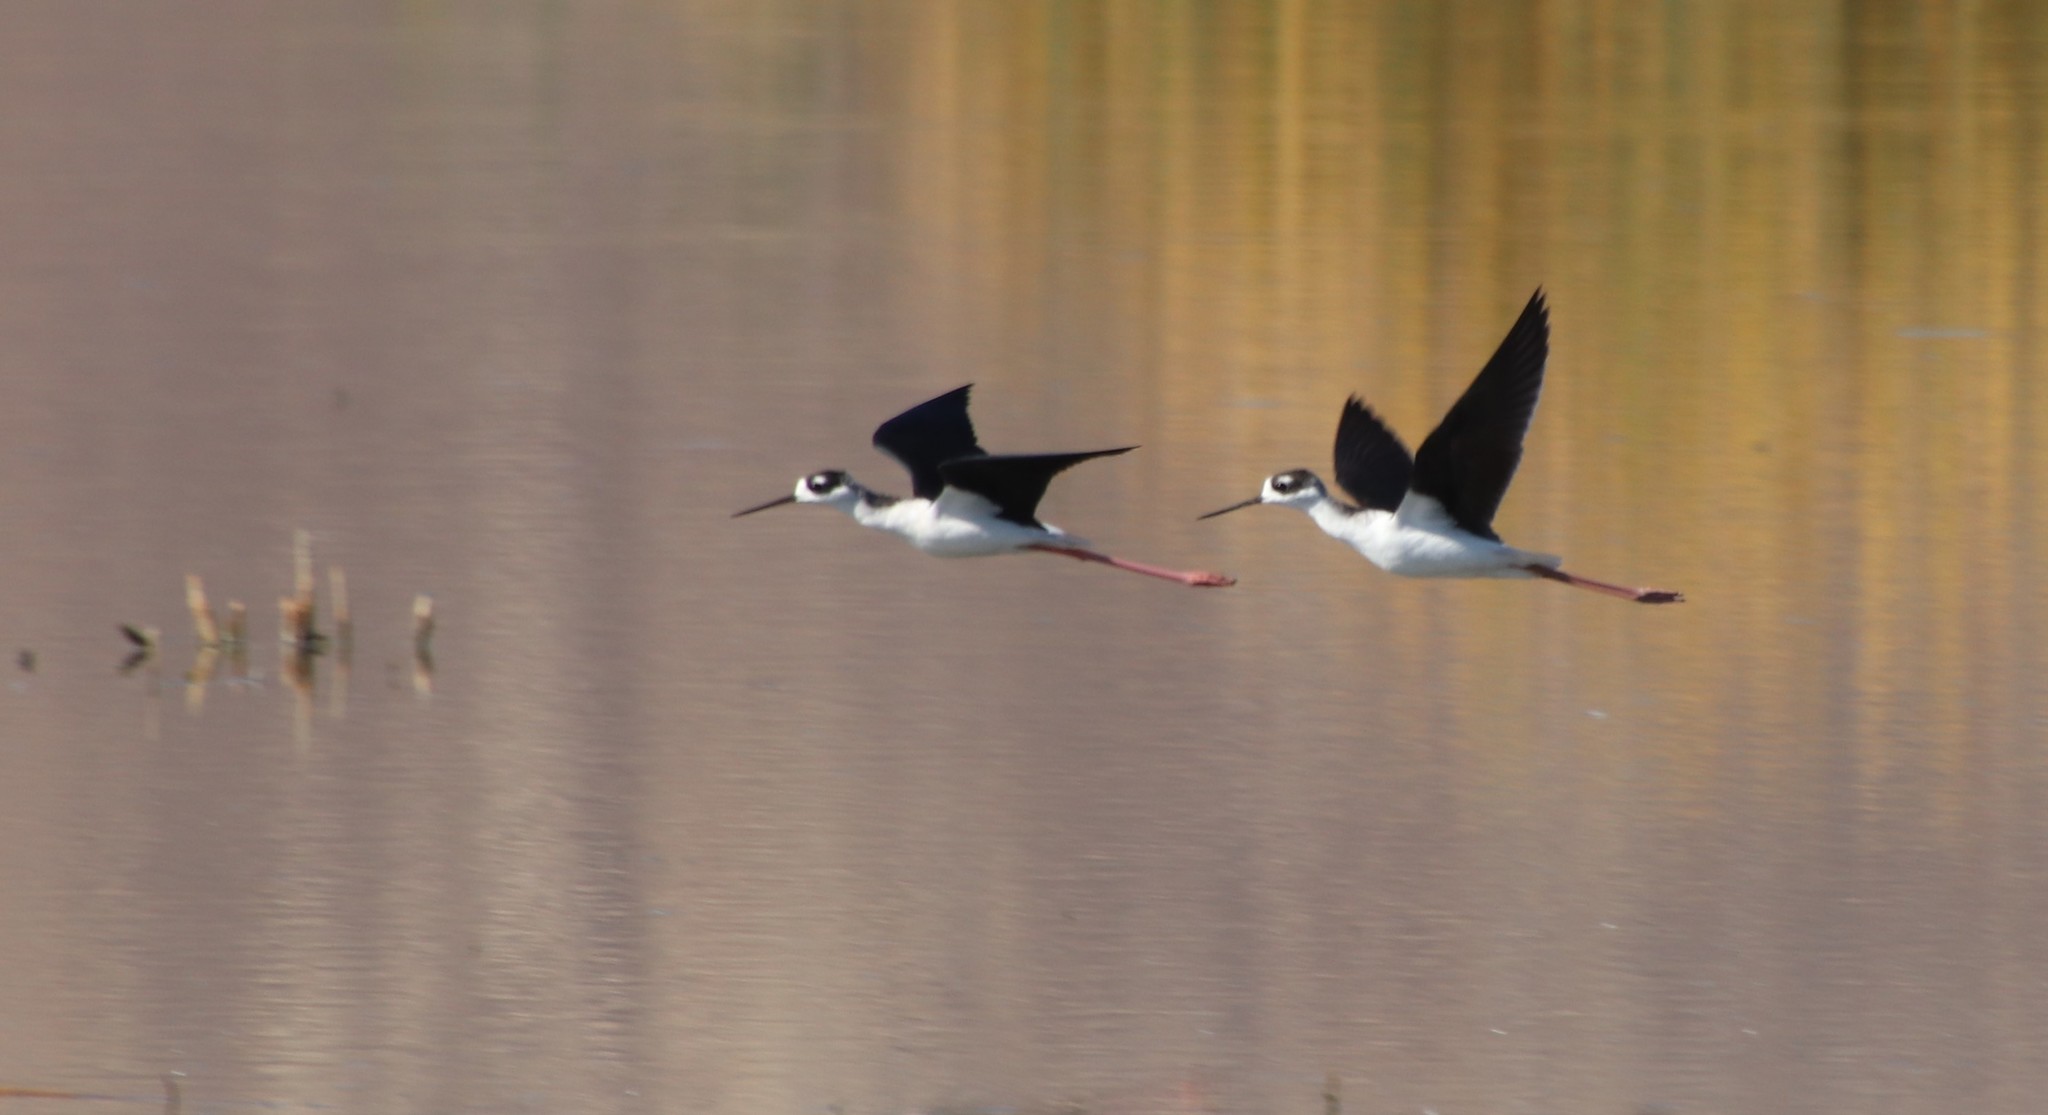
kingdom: Animalia
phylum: Chordata
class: Aves
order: Charadriiformes
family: Recurvirostridae
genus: Himantopus
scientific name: Himantopus mexicanus
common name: Black-necked stilt
